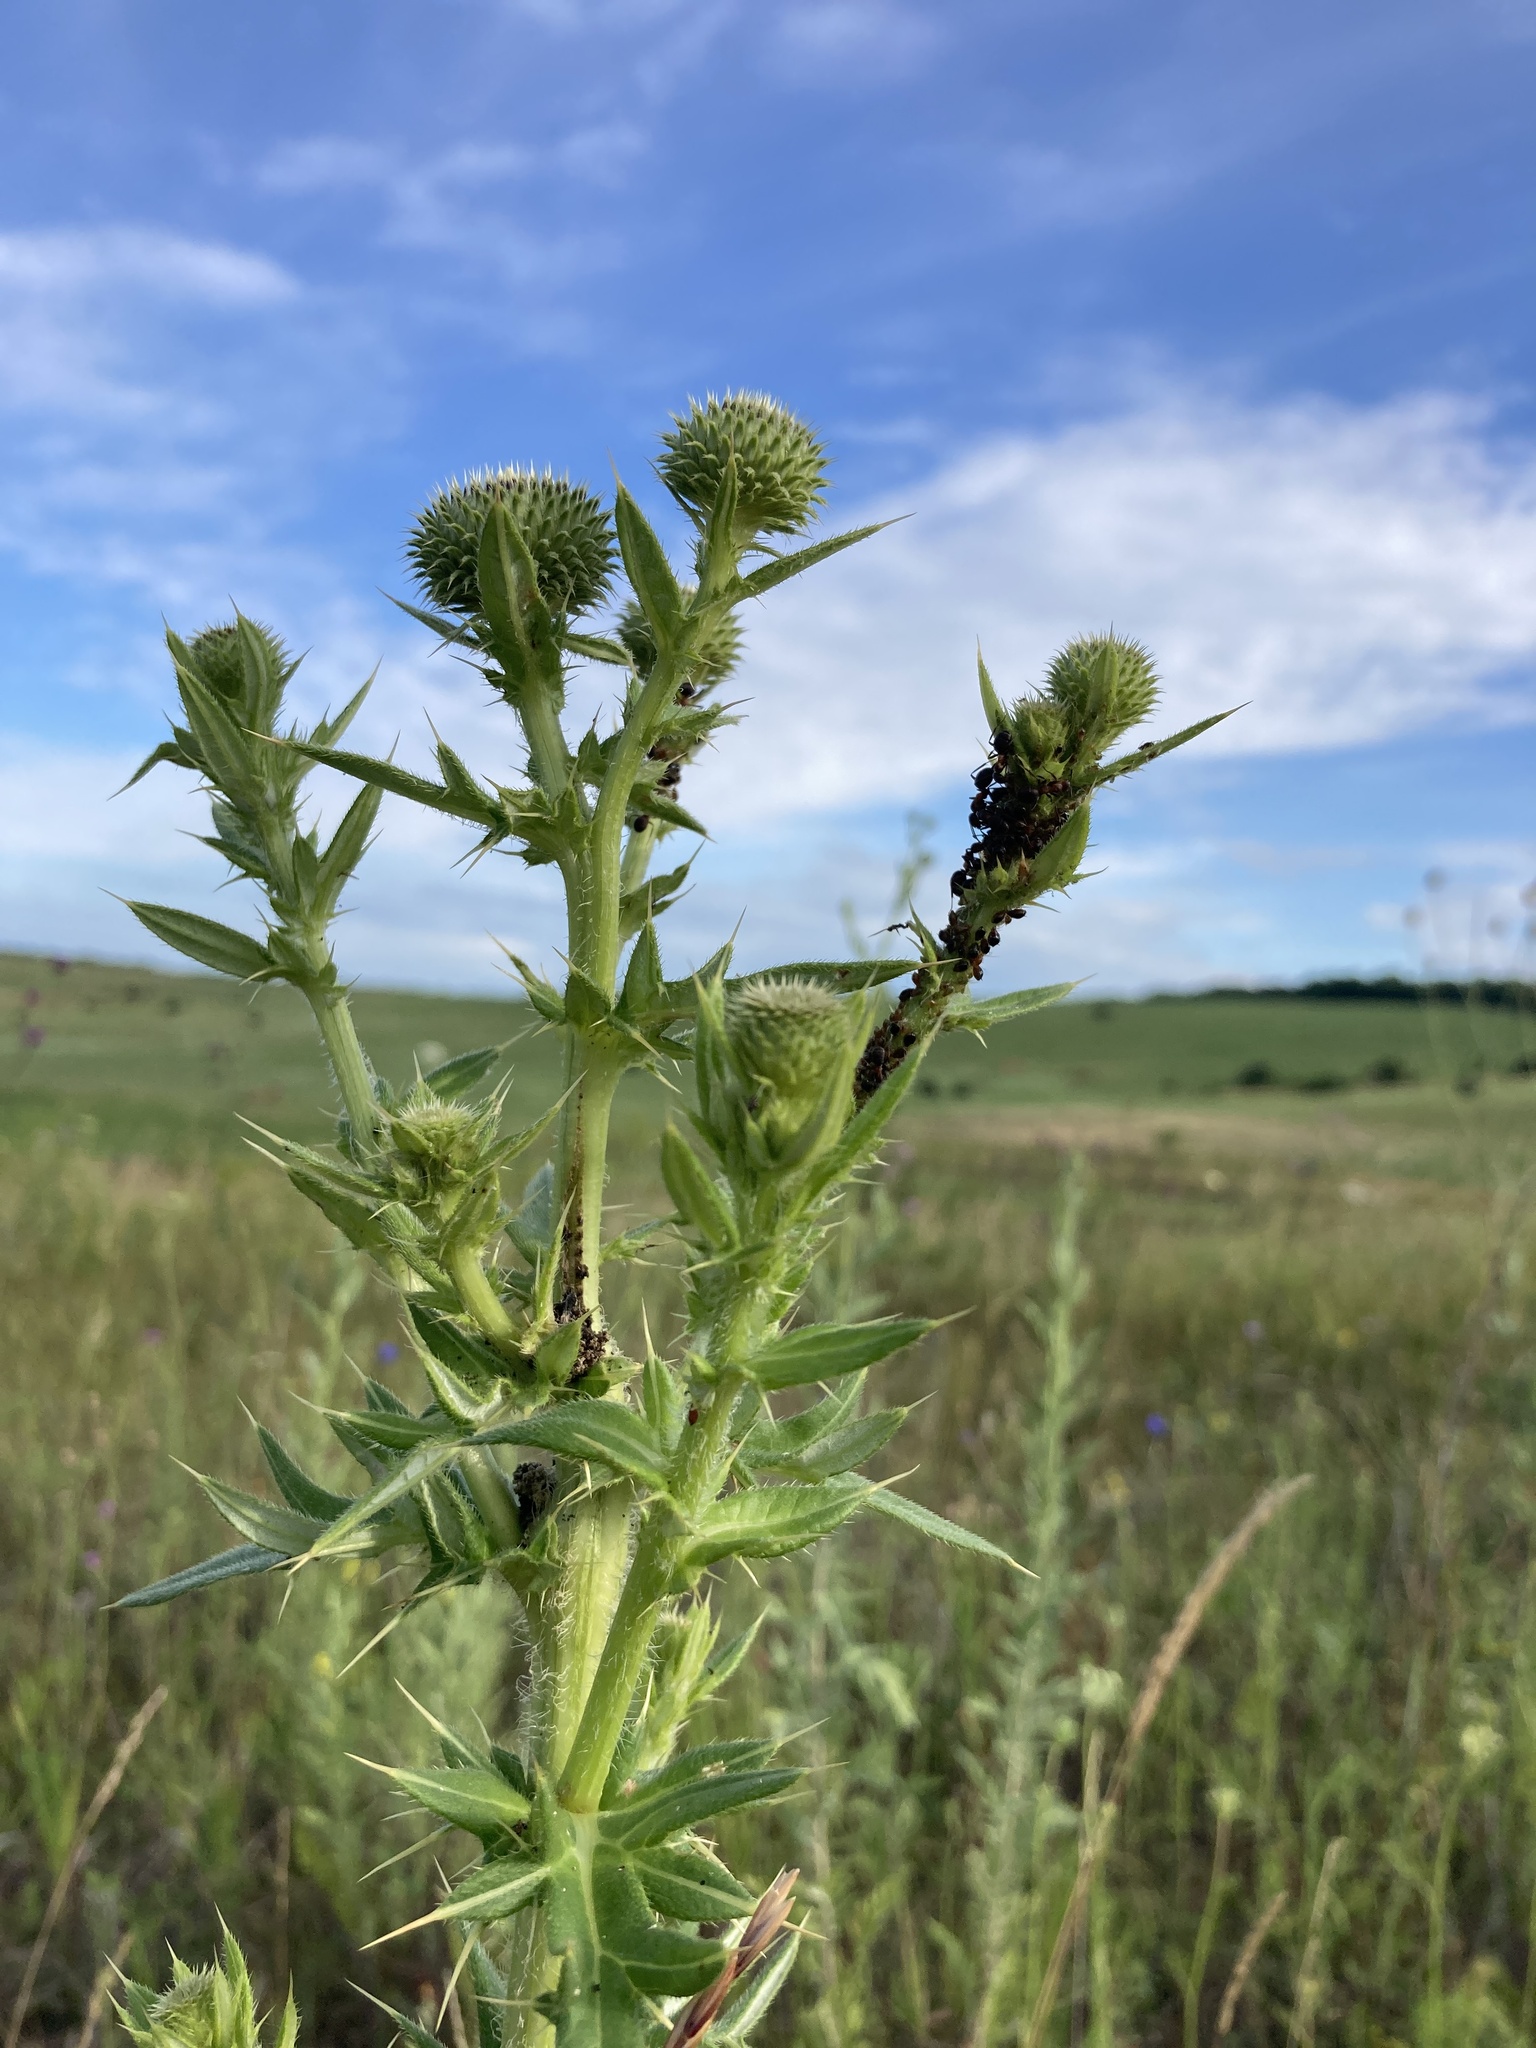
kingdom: Plantae
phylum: Tracheophyta
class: Magnoliopsida
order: Asterales
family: Asteraceae
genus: Cirsium
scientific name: Cirsium serrulatum
